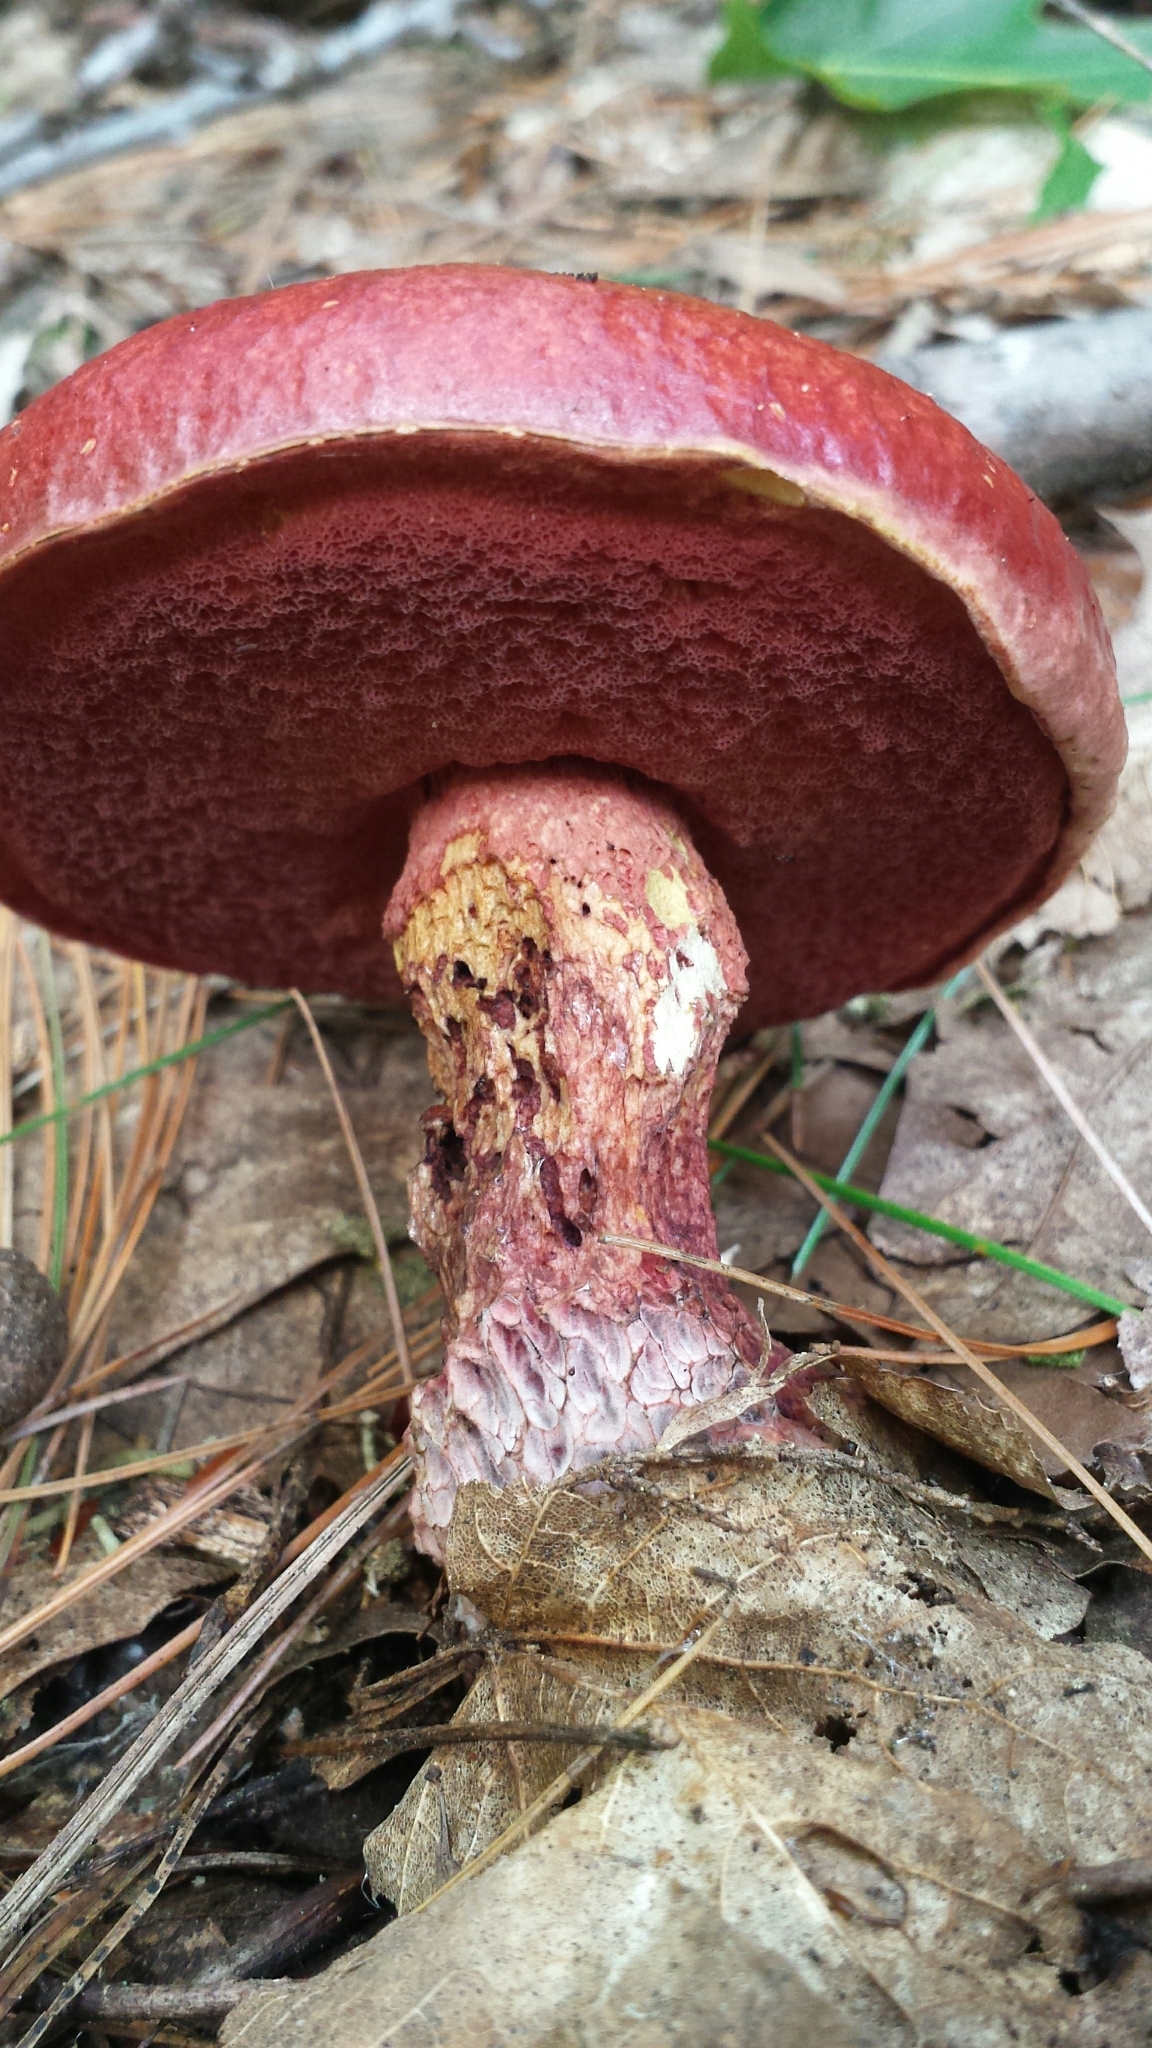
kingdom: Fungi
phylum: Basidiomycota
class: Agaricomycetes
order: Boletales
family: Boletaceae
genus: Butyriboletus
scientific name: Butyriboletus frostii
